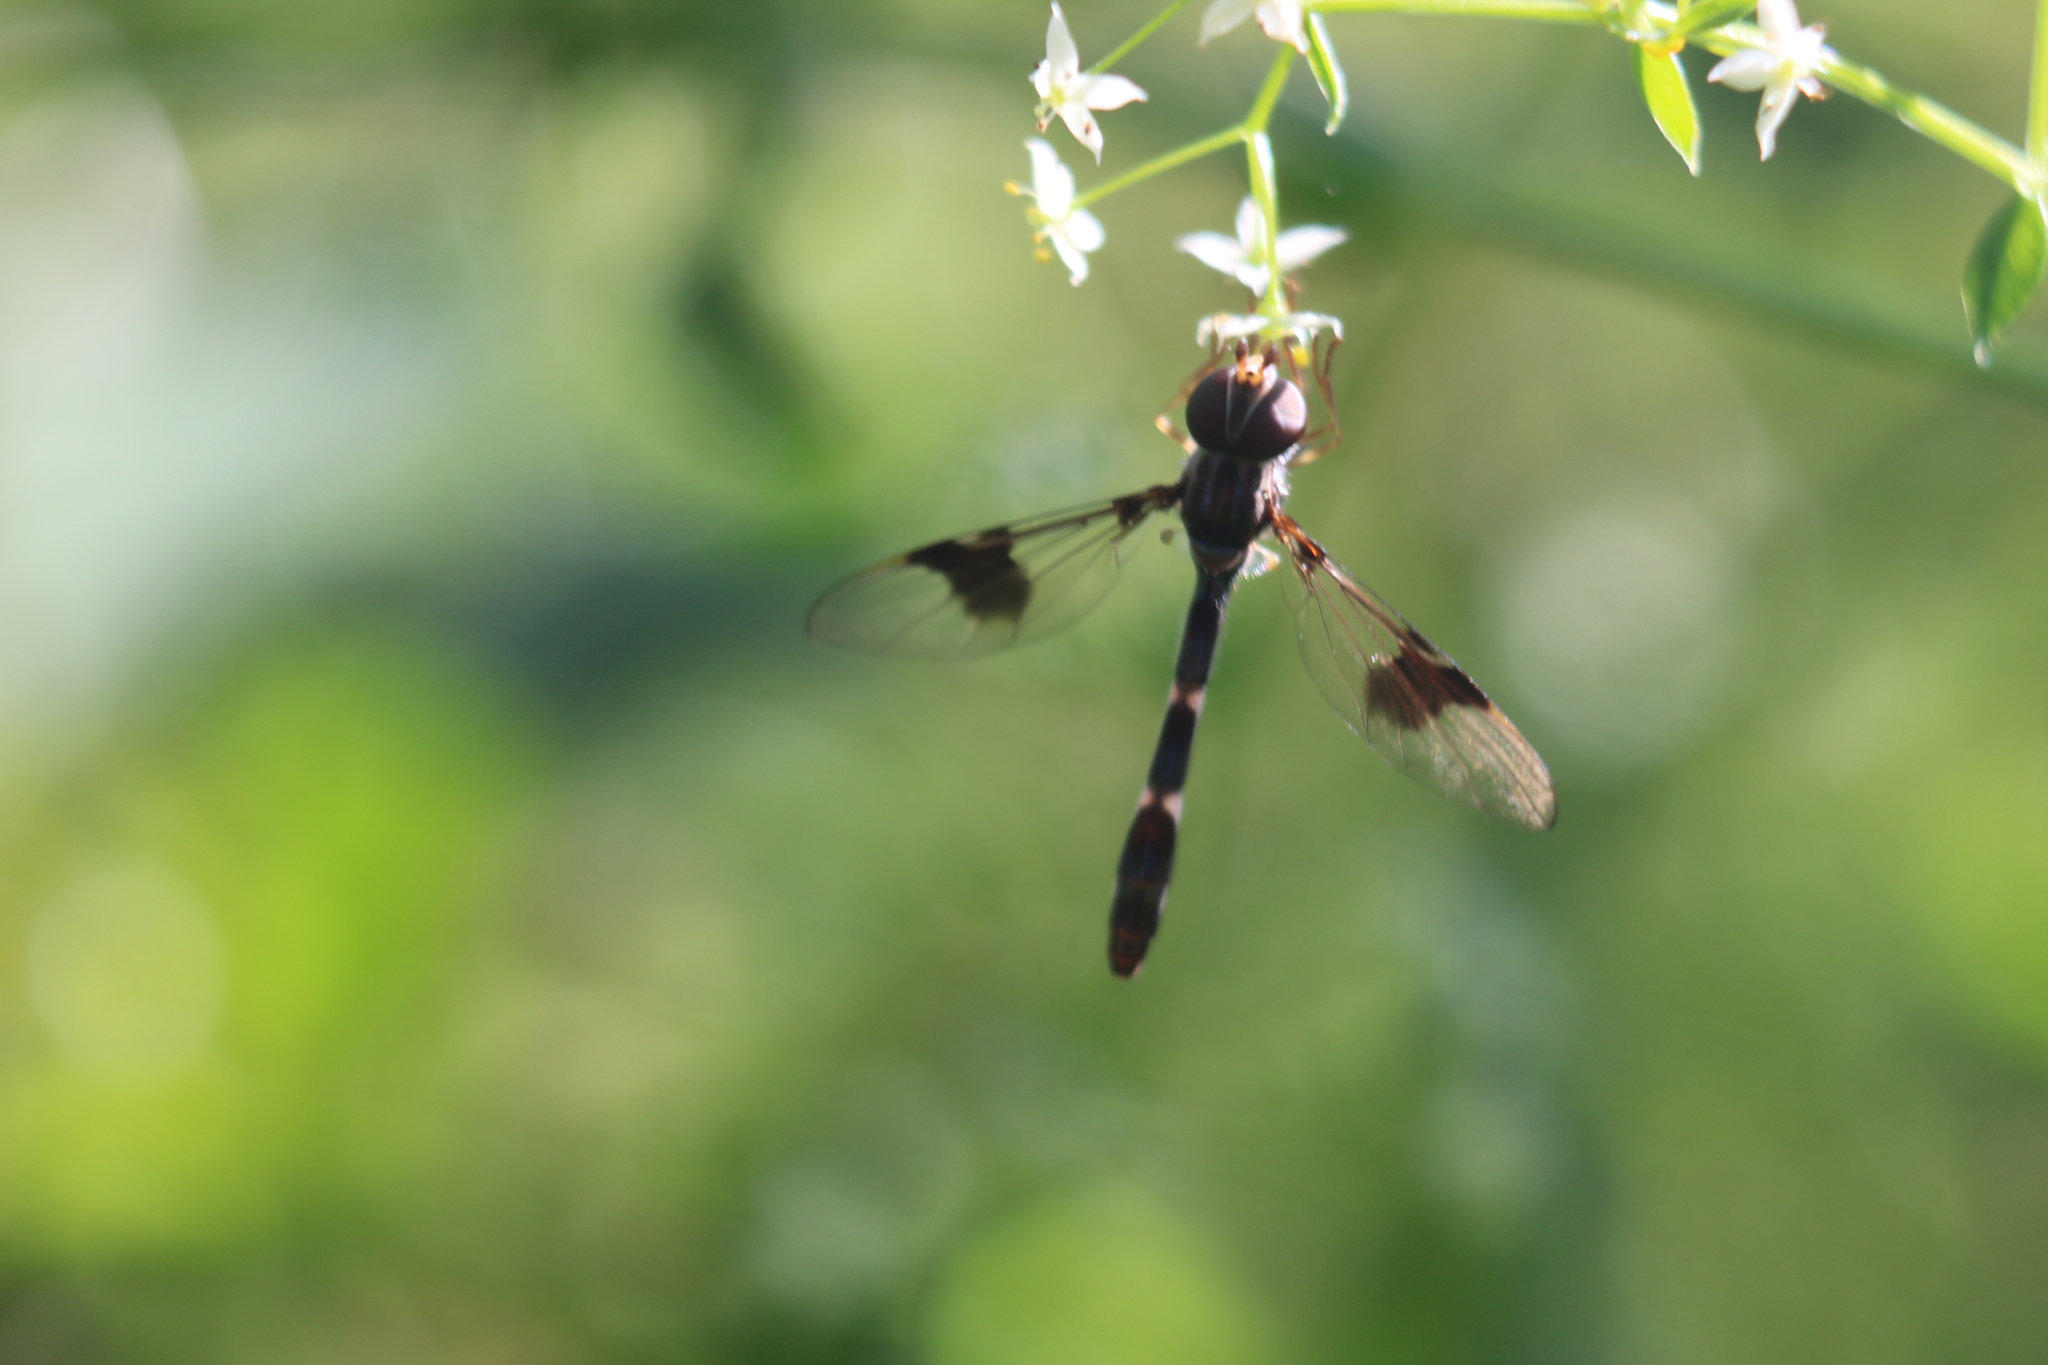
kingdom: Animalia
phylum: Arthropoda
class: Insecta
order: Diptera
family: Syrphidae
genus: Hypocritanus
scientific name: Hypocritanus fascipennis
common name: Eastern band-winged hover fly
